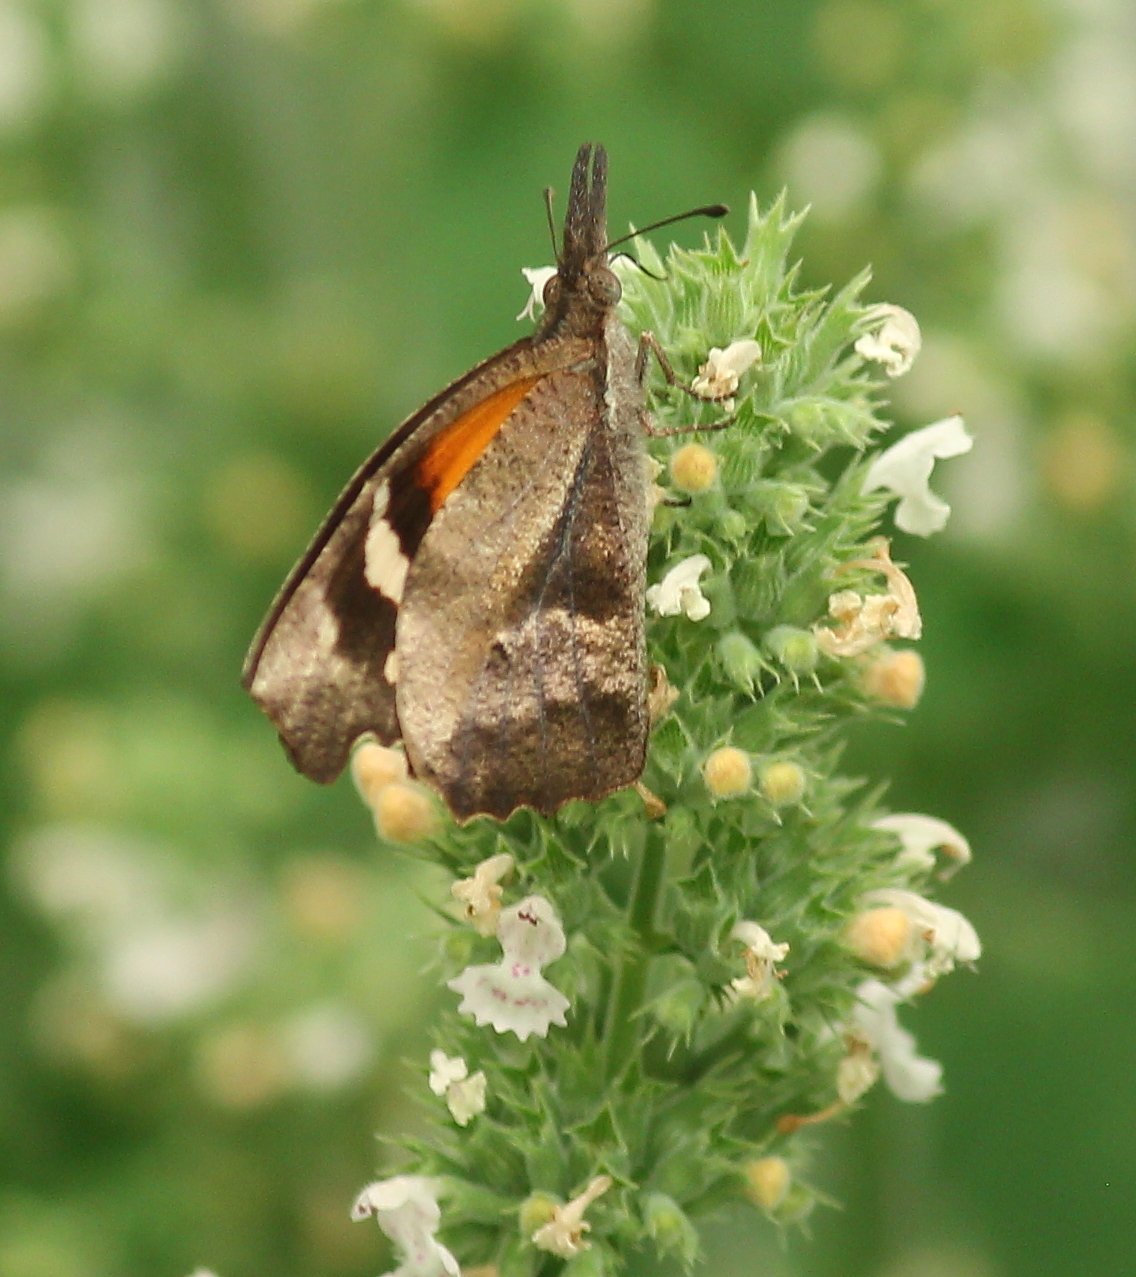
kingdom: Animalia
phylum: Arthropoda
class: Insecta
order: Lepidoptera
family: Nymphalidae
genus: Libytheana
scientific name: Libytheana carinenta
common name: American snout
